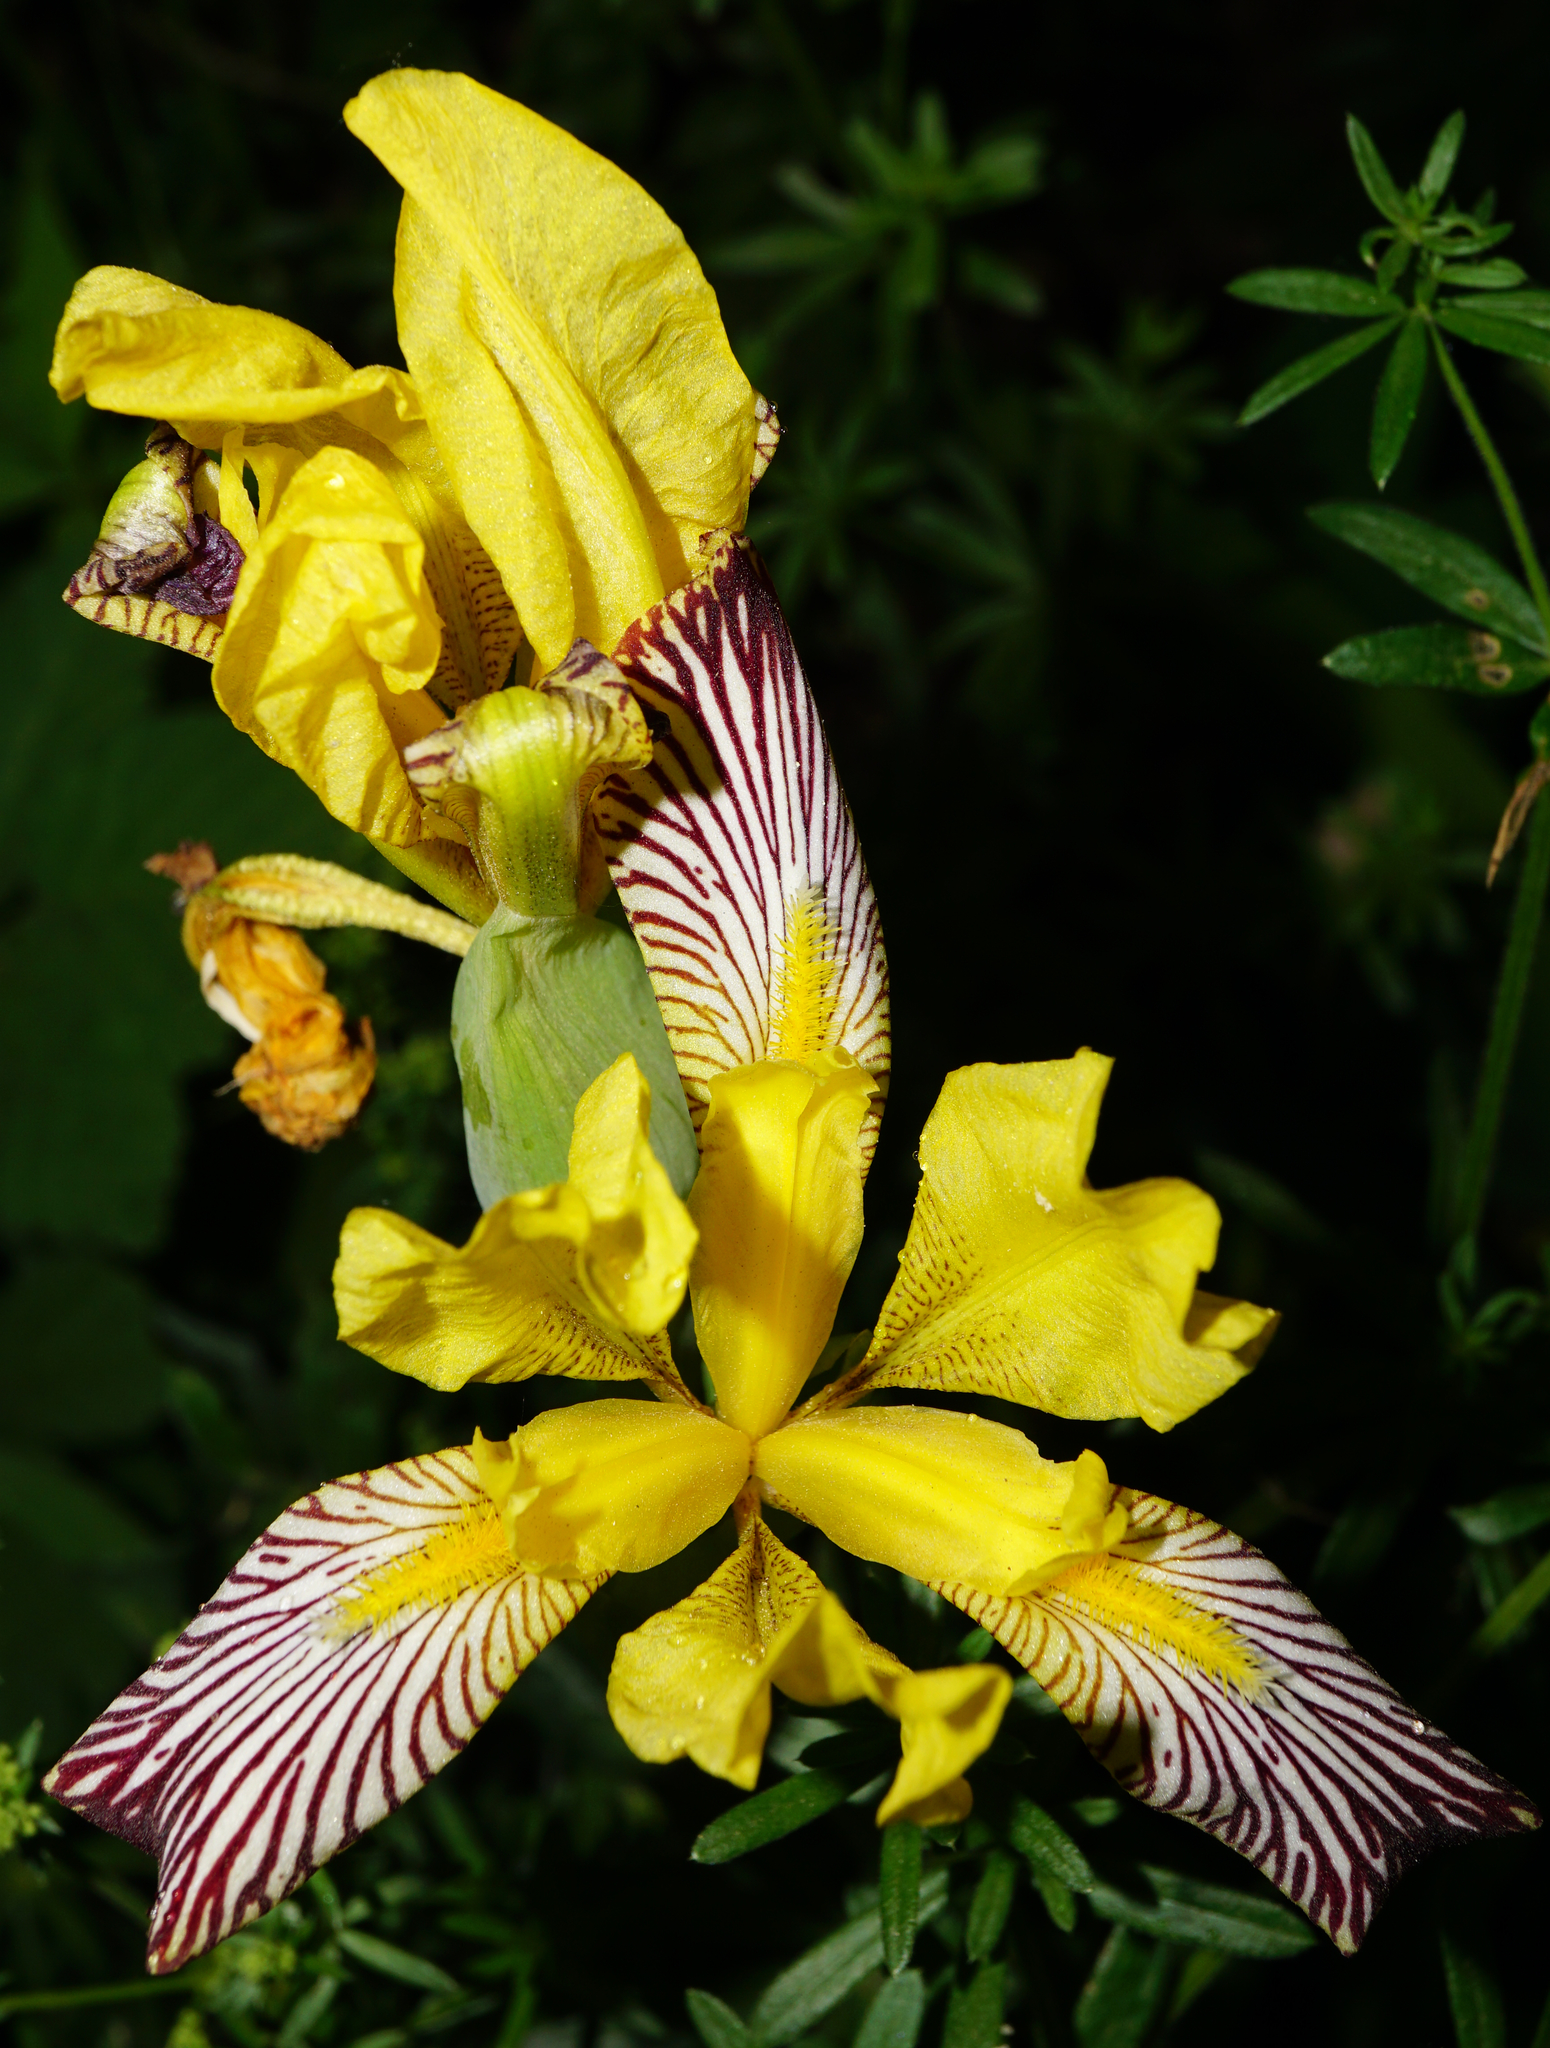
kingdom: Plantae
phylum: Tracheophyta
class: Liliopsida
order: Asparagales
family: Iridaceae
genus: Iris
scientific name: Iris variegata
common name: Hungarian iris
